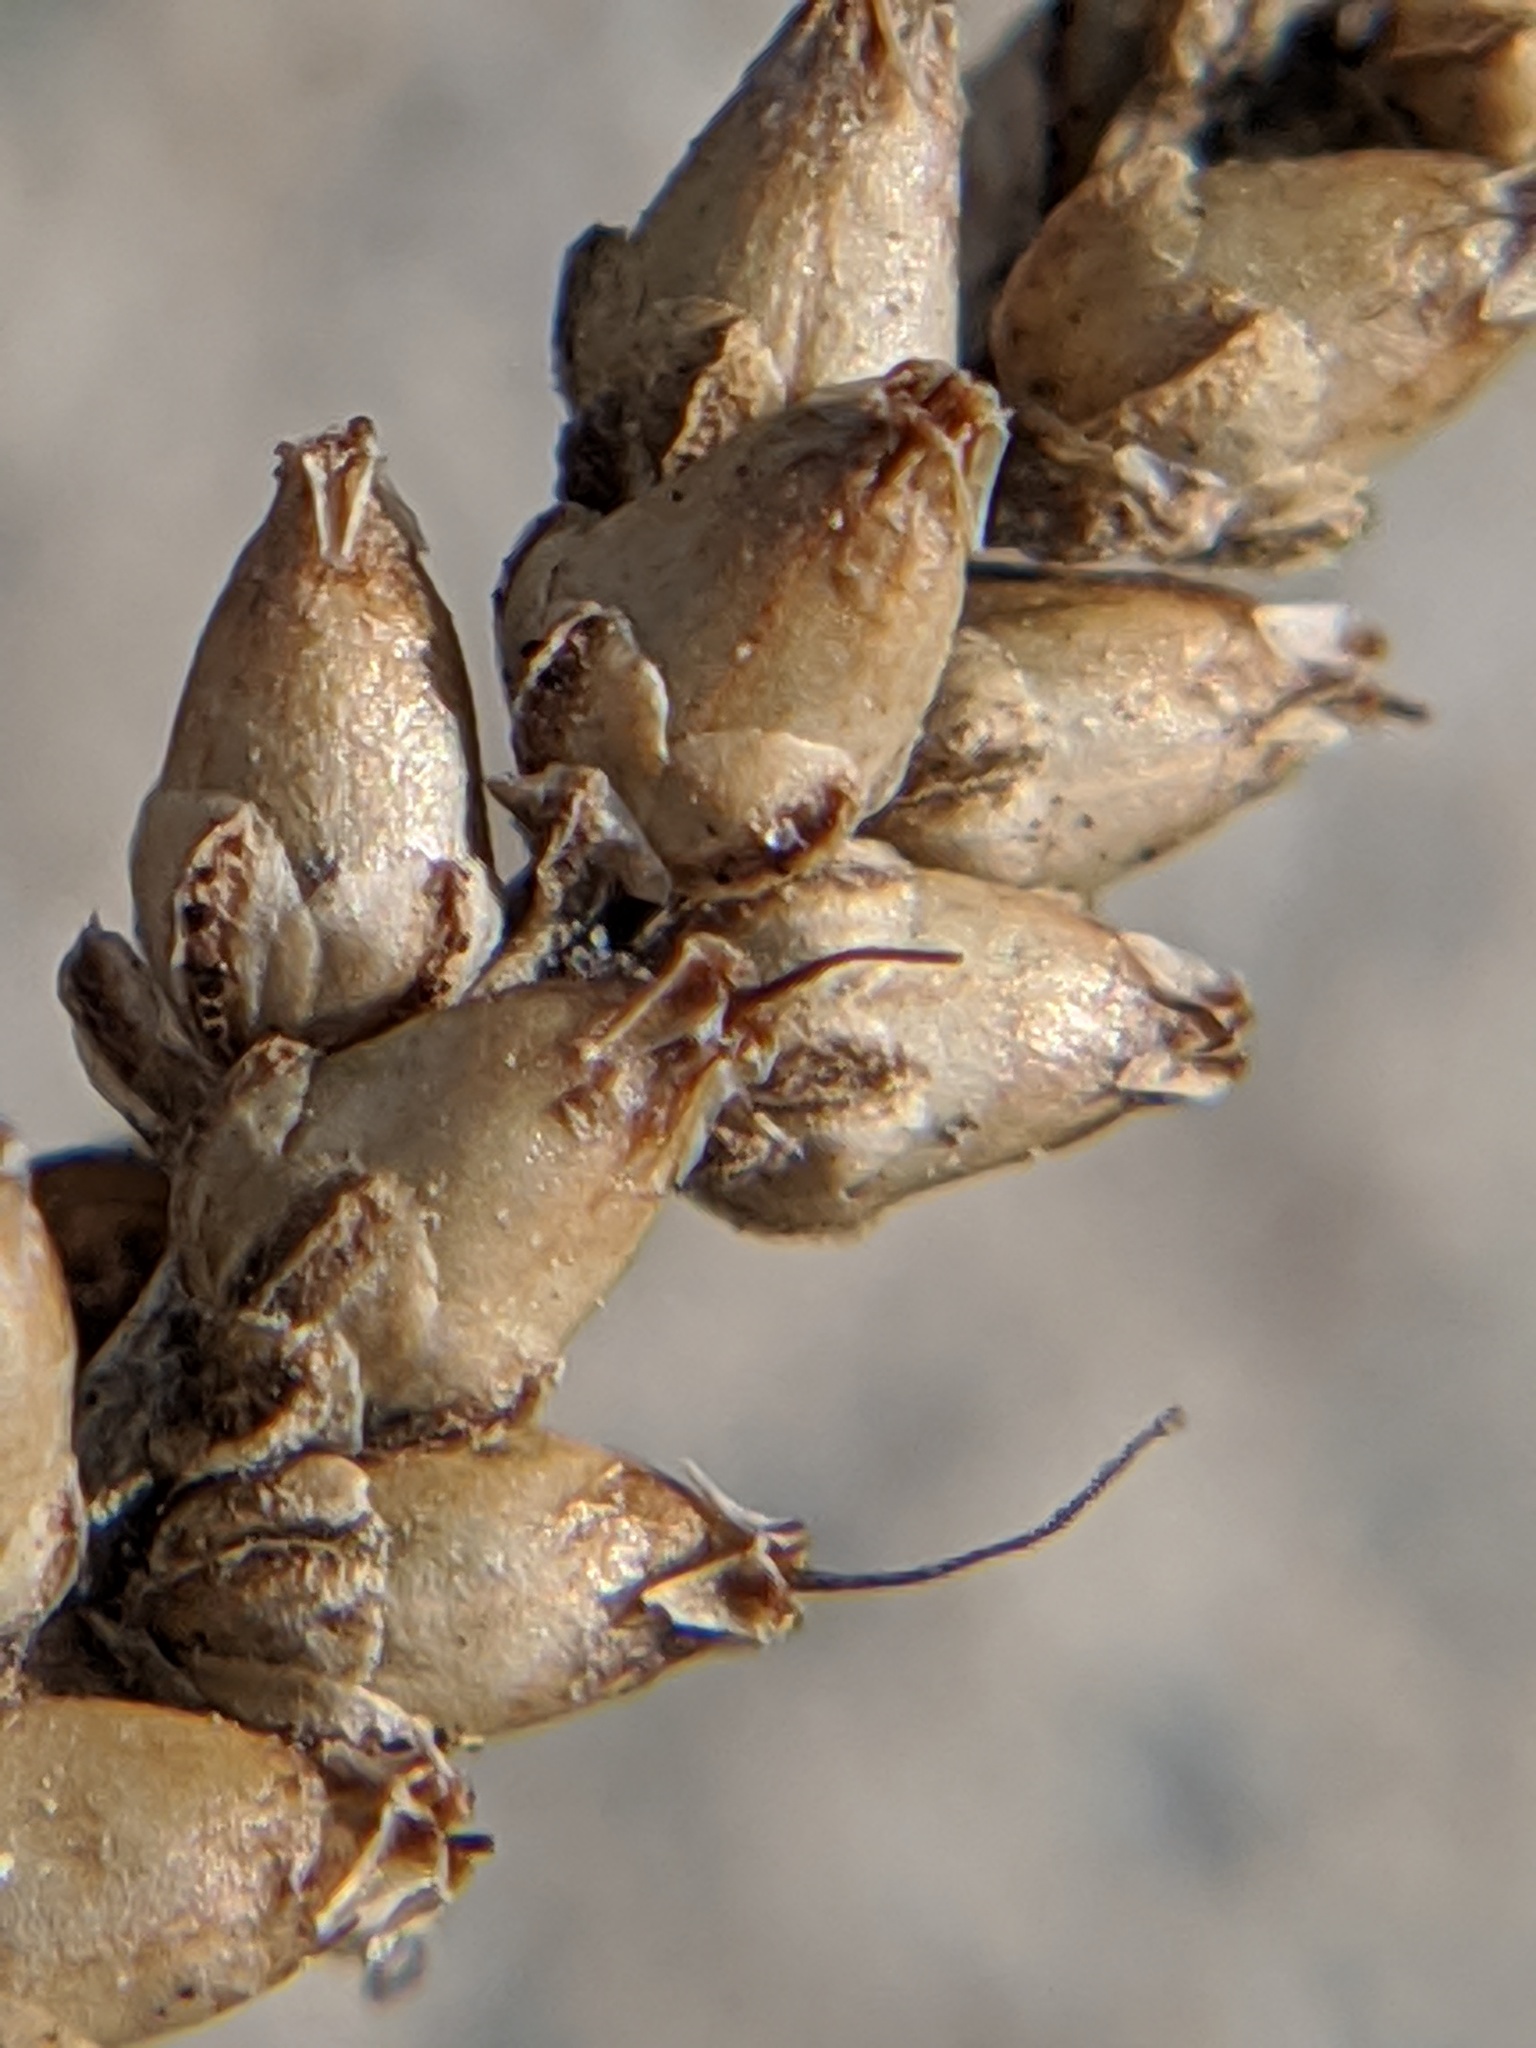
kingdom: Plantae
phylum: Tracheophyta
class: Magnoliopsida
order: Lamiales
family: Plantaginaceae
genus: Plantago
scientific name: Plantago major
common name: Common plantain
